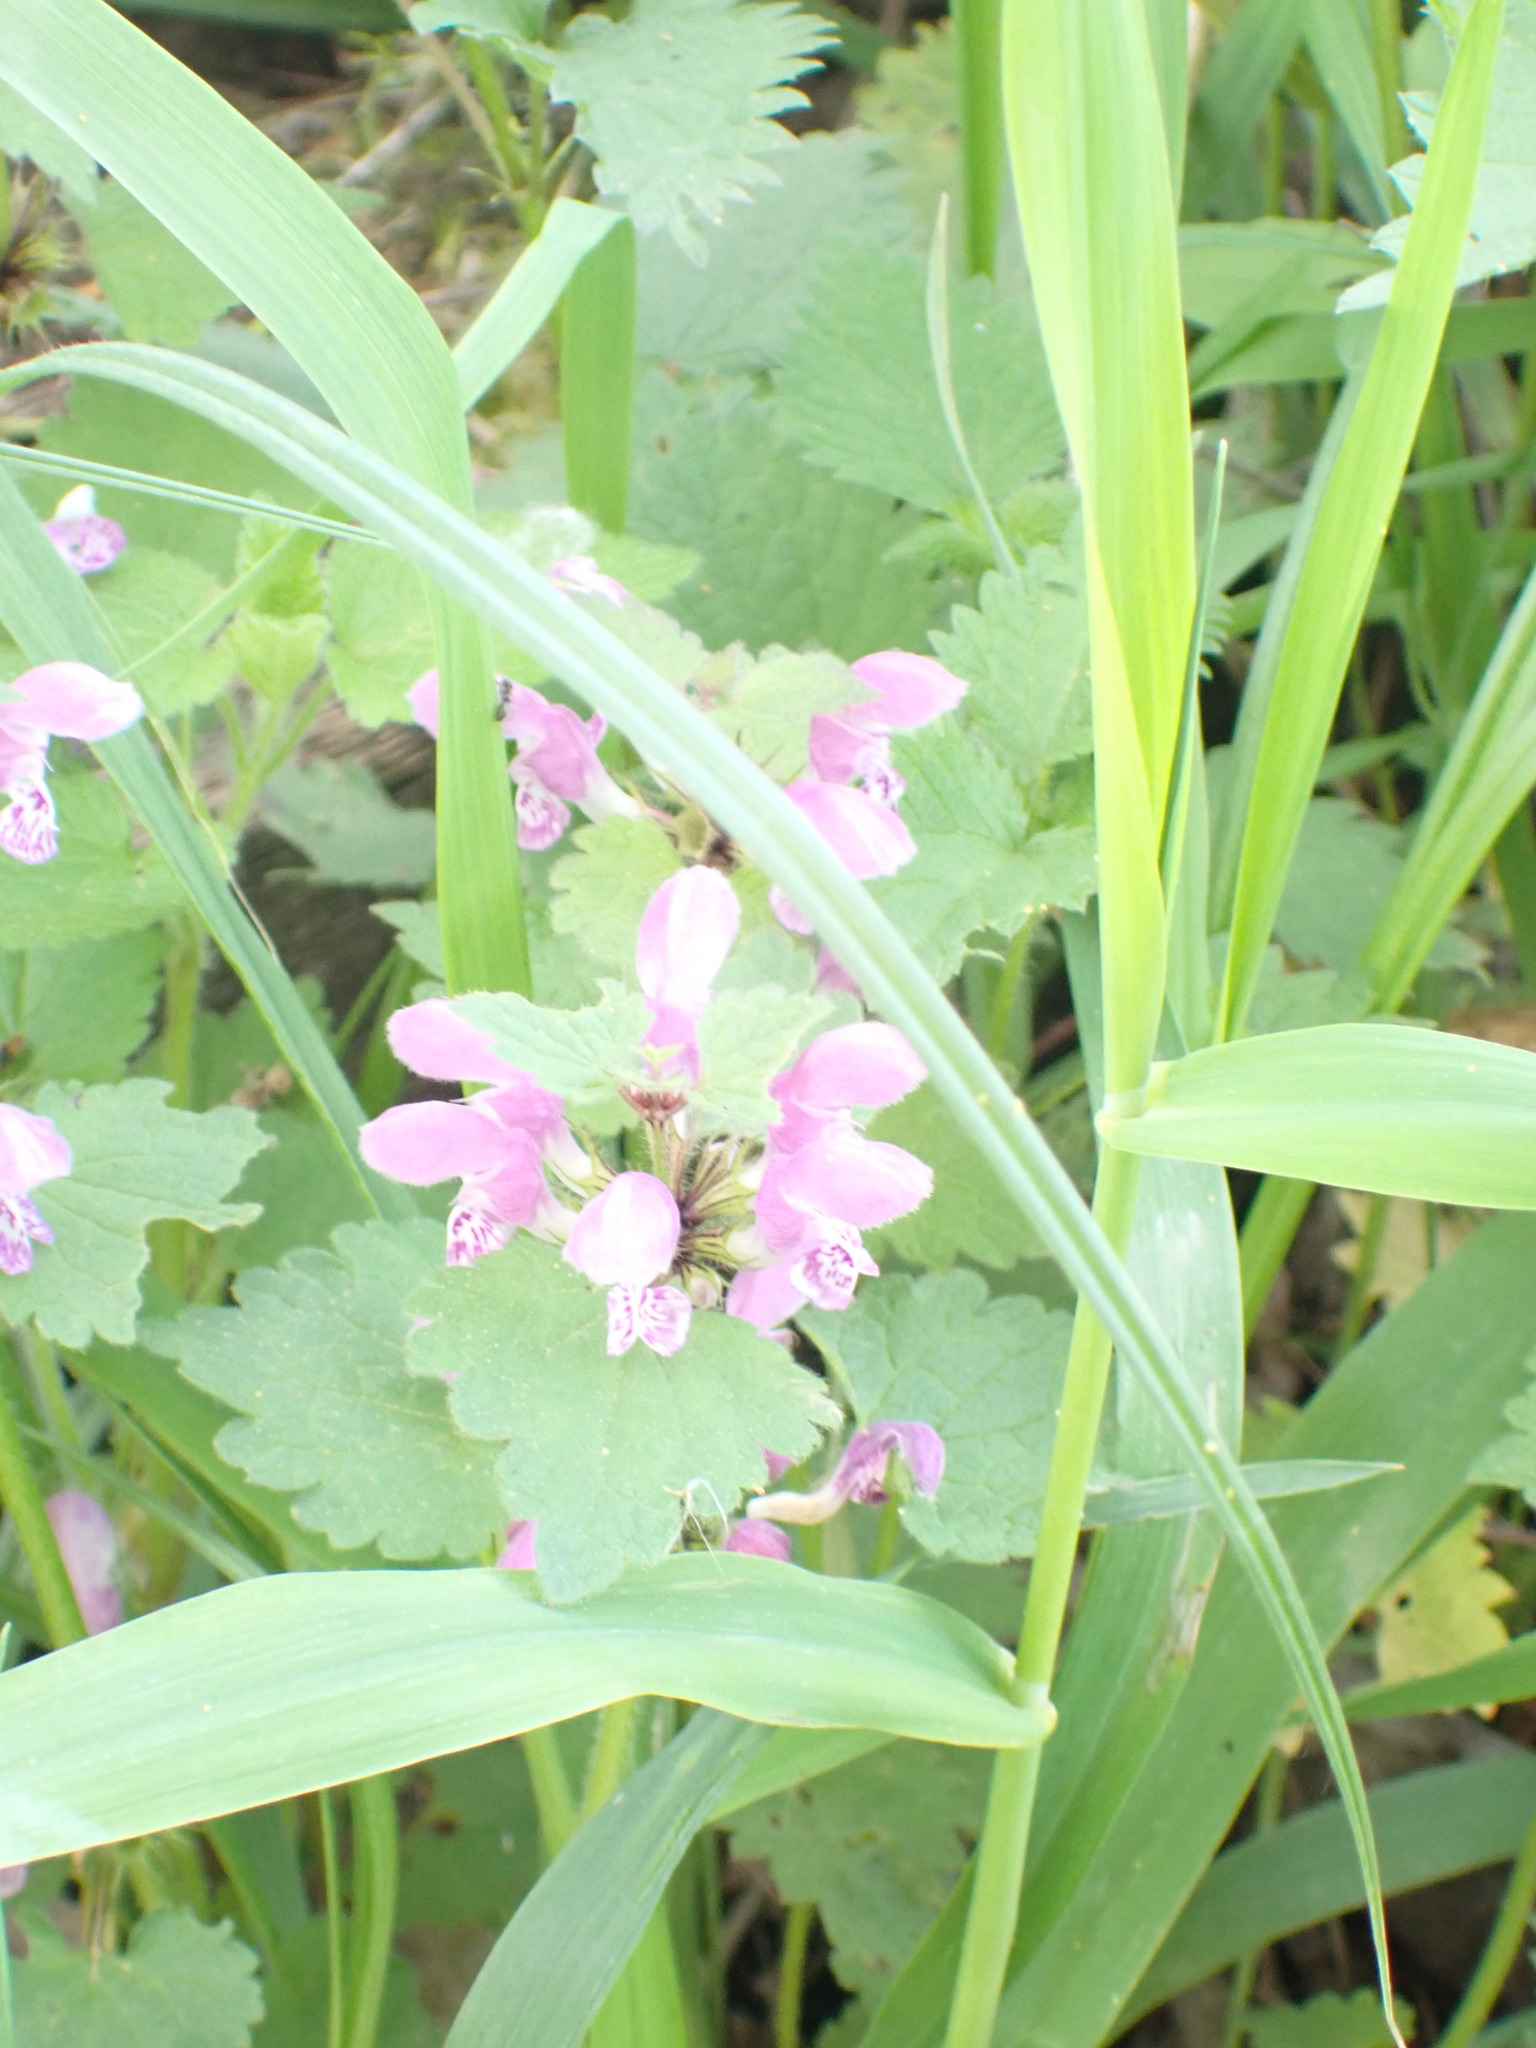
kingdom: Plantae
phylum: Tracheophyta
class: Magnoliopsida
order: Lamiales
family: Lamiaceae
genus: Lamium
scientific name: Lamium maculatum
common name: Spotted dead-nettle
